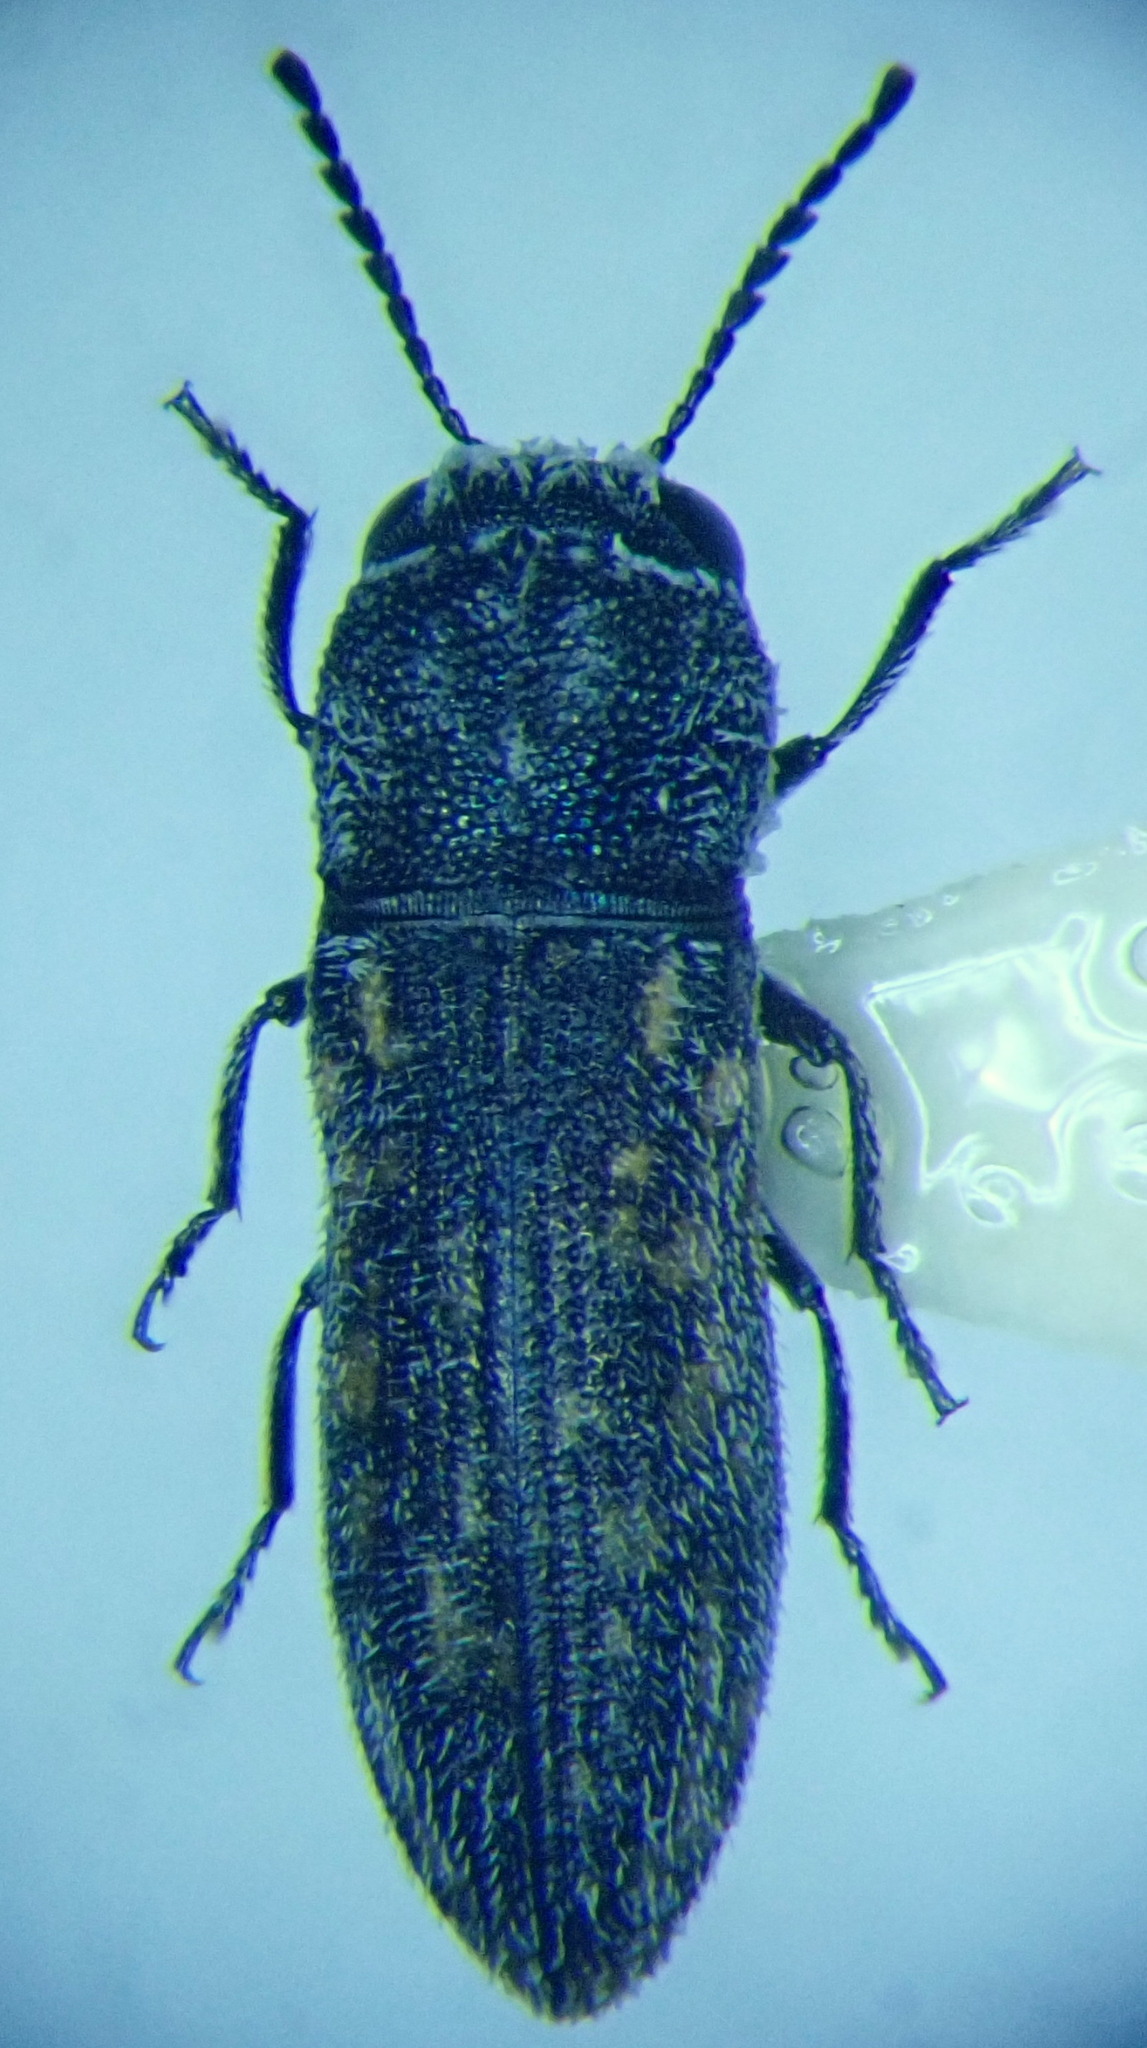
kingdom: Animalia
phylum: Arthropoda
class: Insecta
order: Coleoptera
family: Buprestidae
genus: Acmaeoderella
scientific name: Acmaeoderella adspersula
